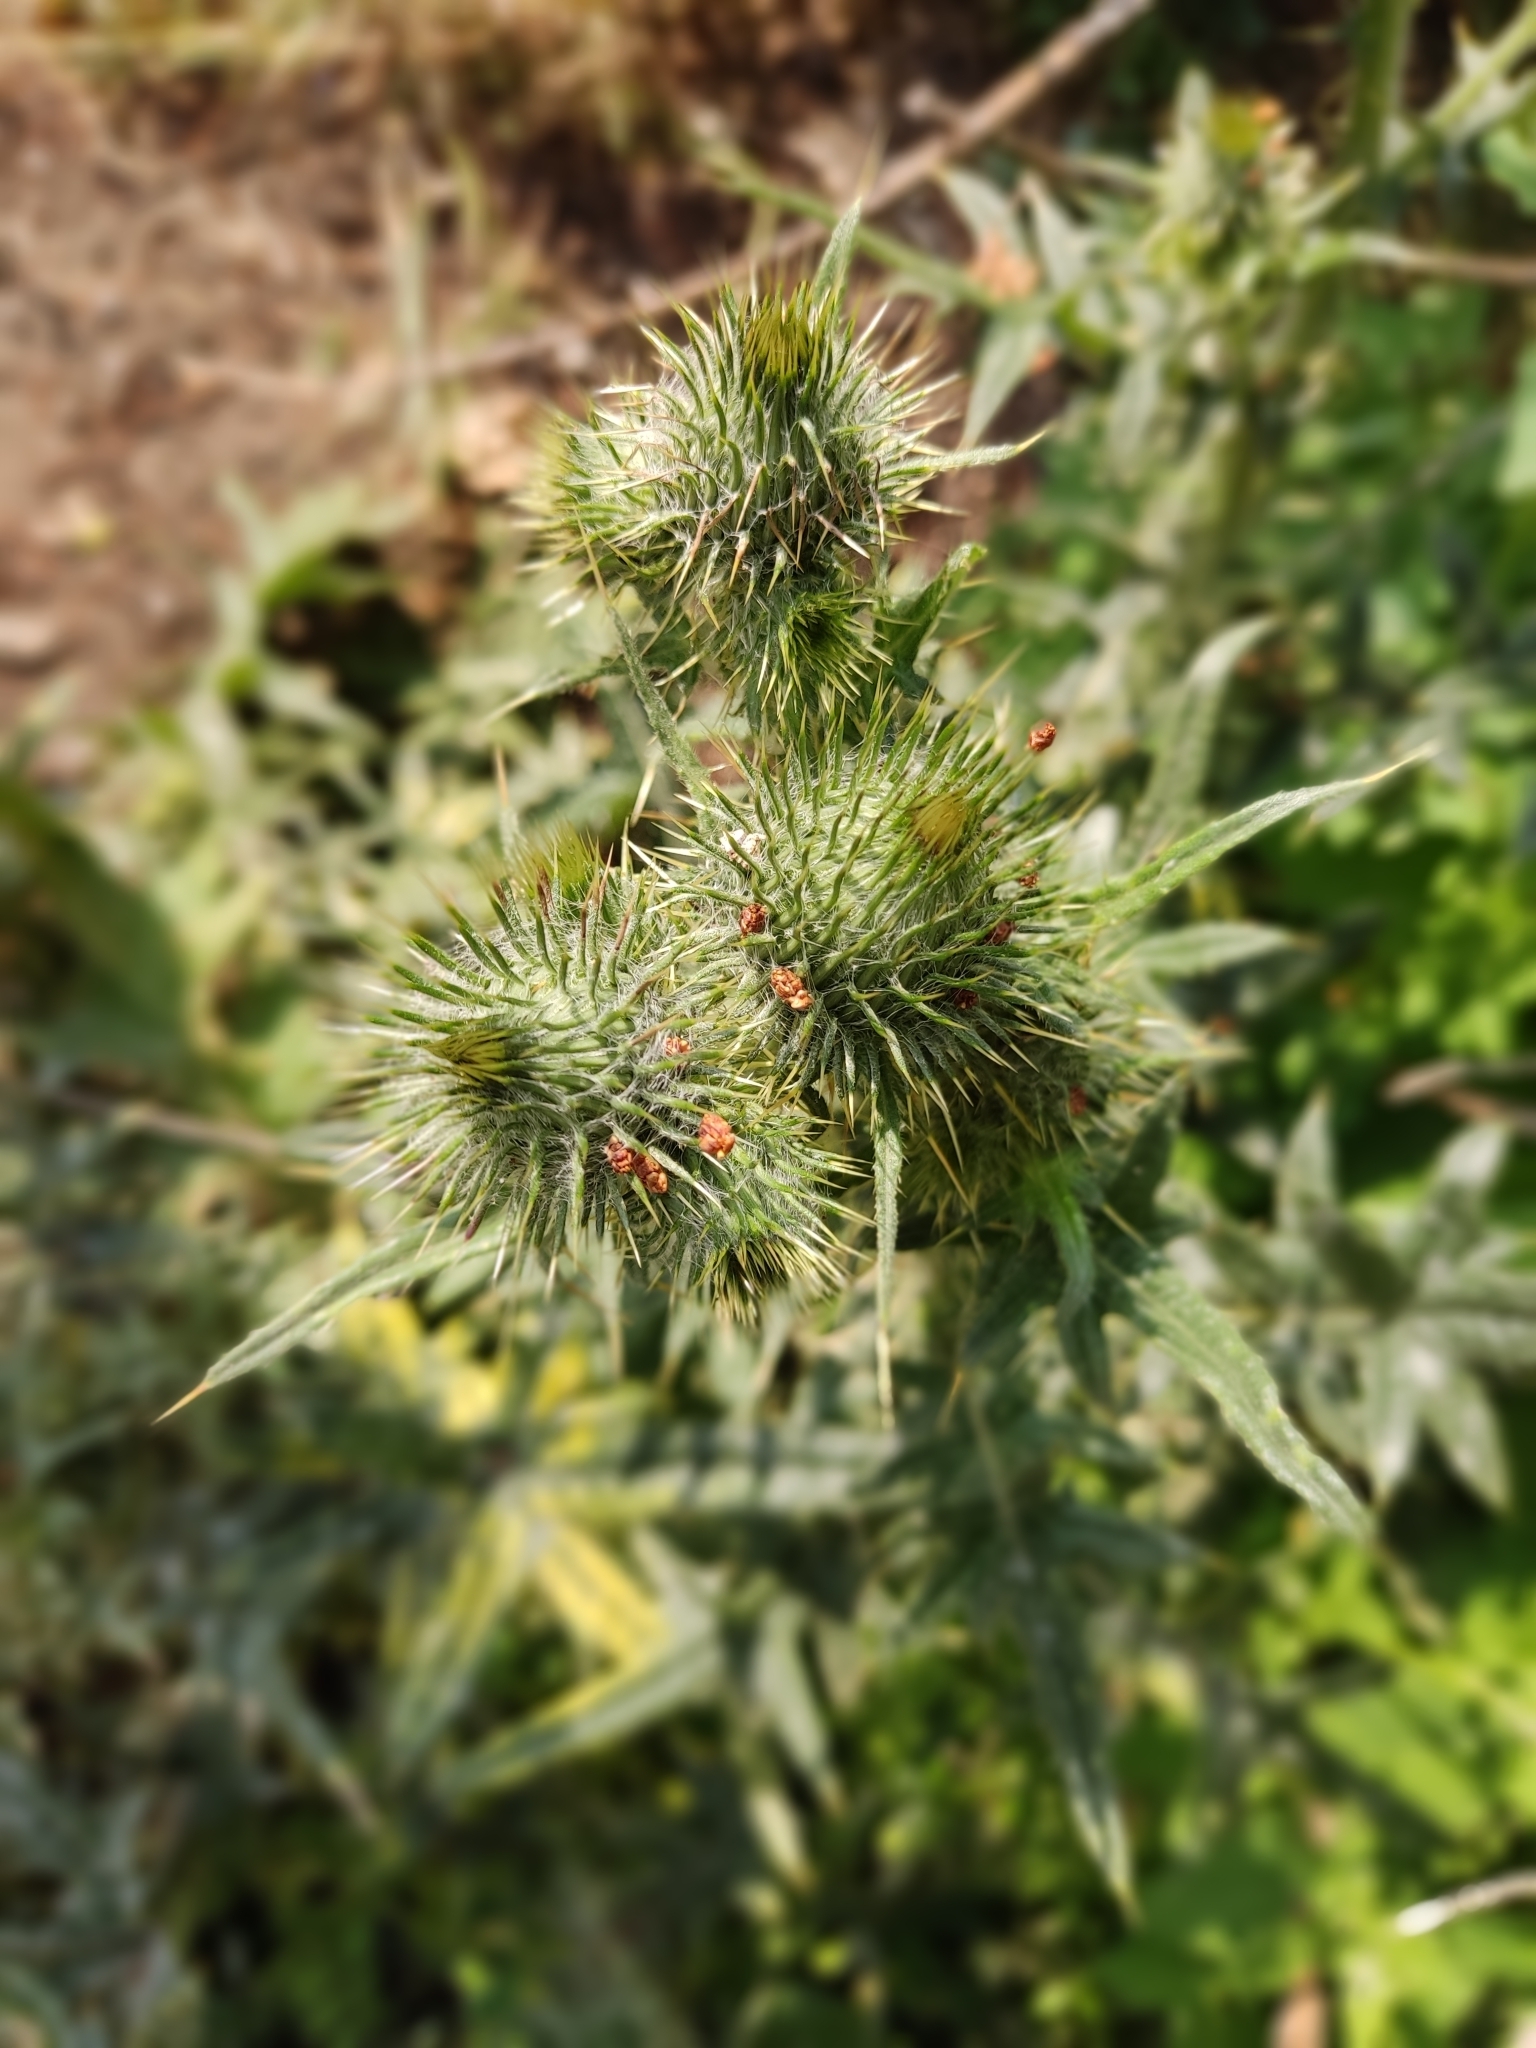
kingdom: Plantae
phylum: Tracheophyta
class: Magnoliopsida
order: Asterales
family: Asteraceae
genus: Cirsium
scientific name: Cirsium vulgare
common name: Bull thistle
